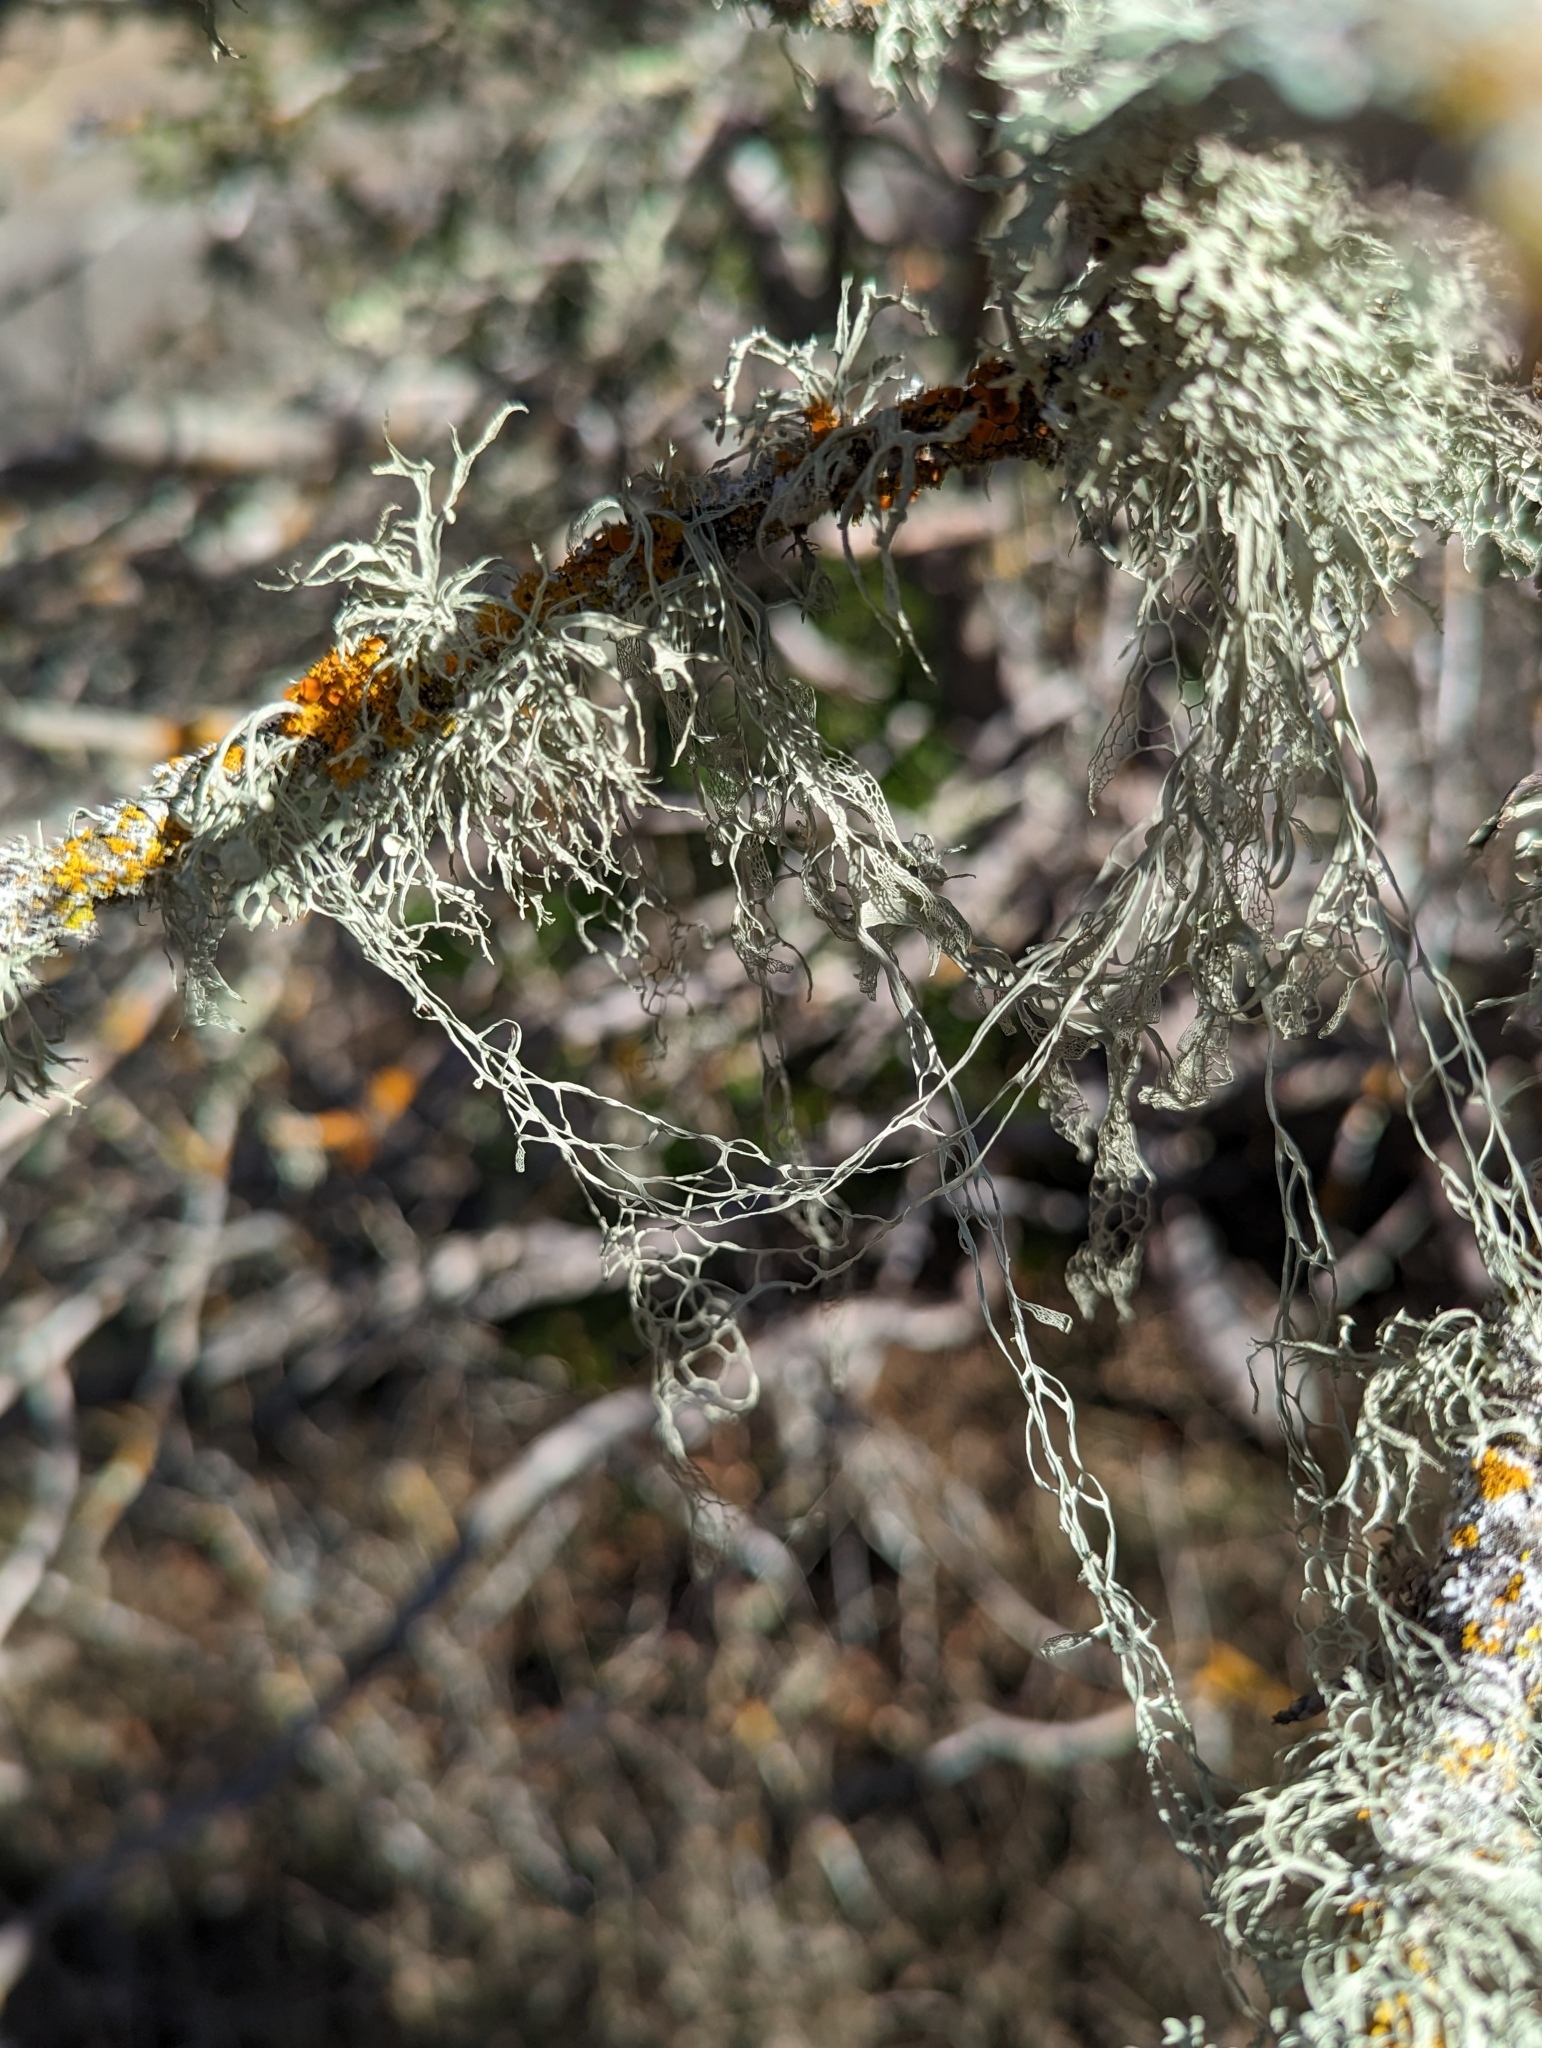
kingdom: Fungi
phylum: Ascomycota
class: Lecanoromycetes
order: Lecanorales
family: Ramalinaceae
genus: Ramalina
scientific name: Ramalina menziesii
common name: Lace lichen
